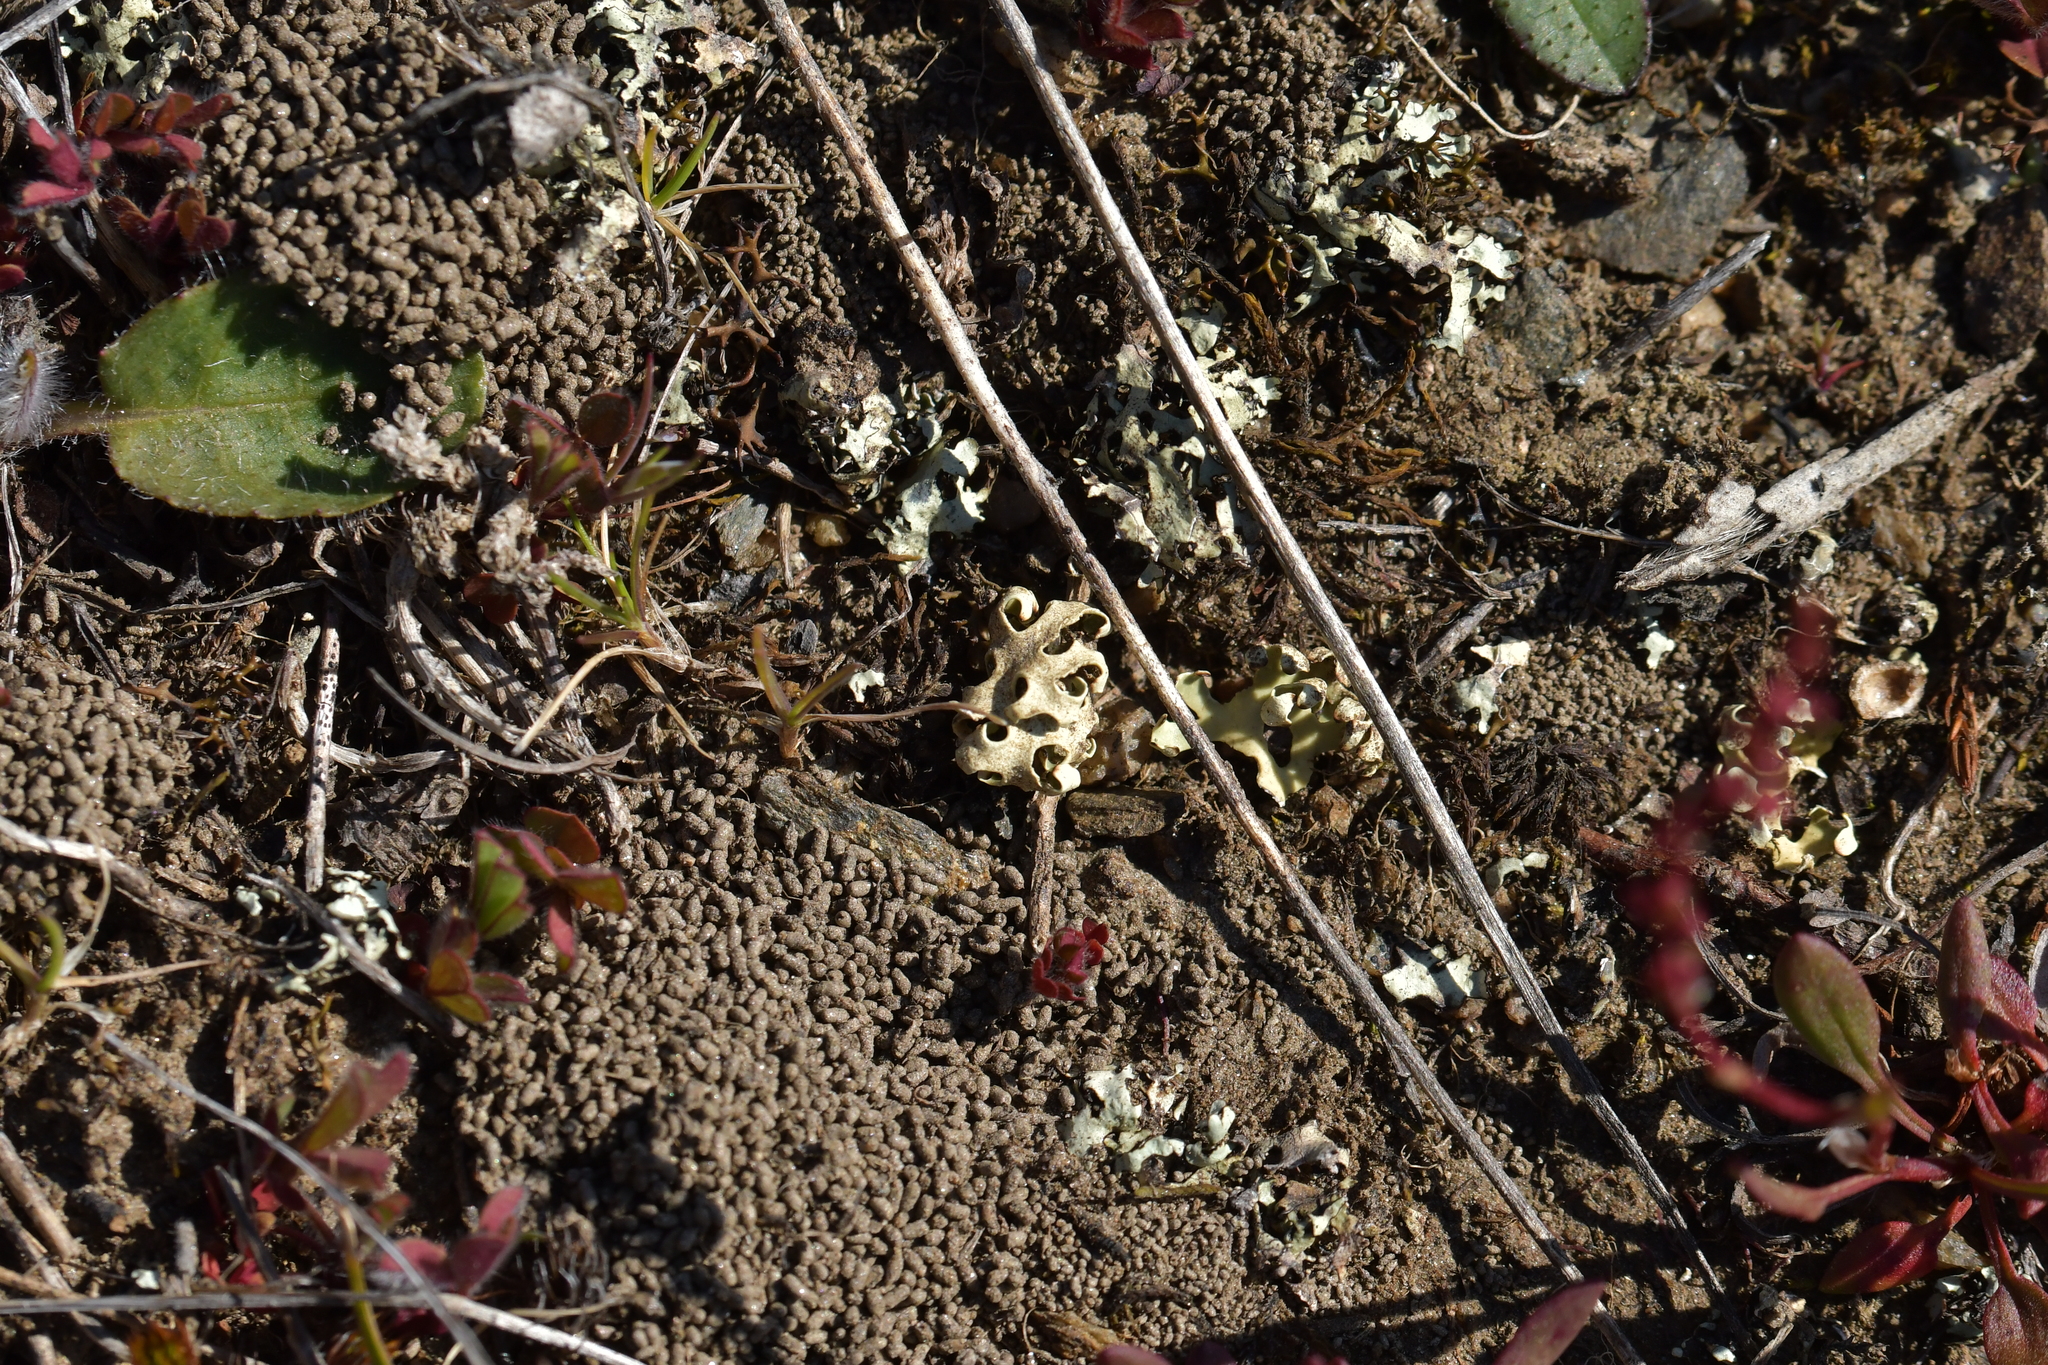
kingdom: Fungi
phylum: Ascomycota
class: Lecanoromycetes
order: Lecanorales
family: Parmeliaceae
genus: Xanthoparmelia
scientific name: Xanthoparmelia semiviridis
